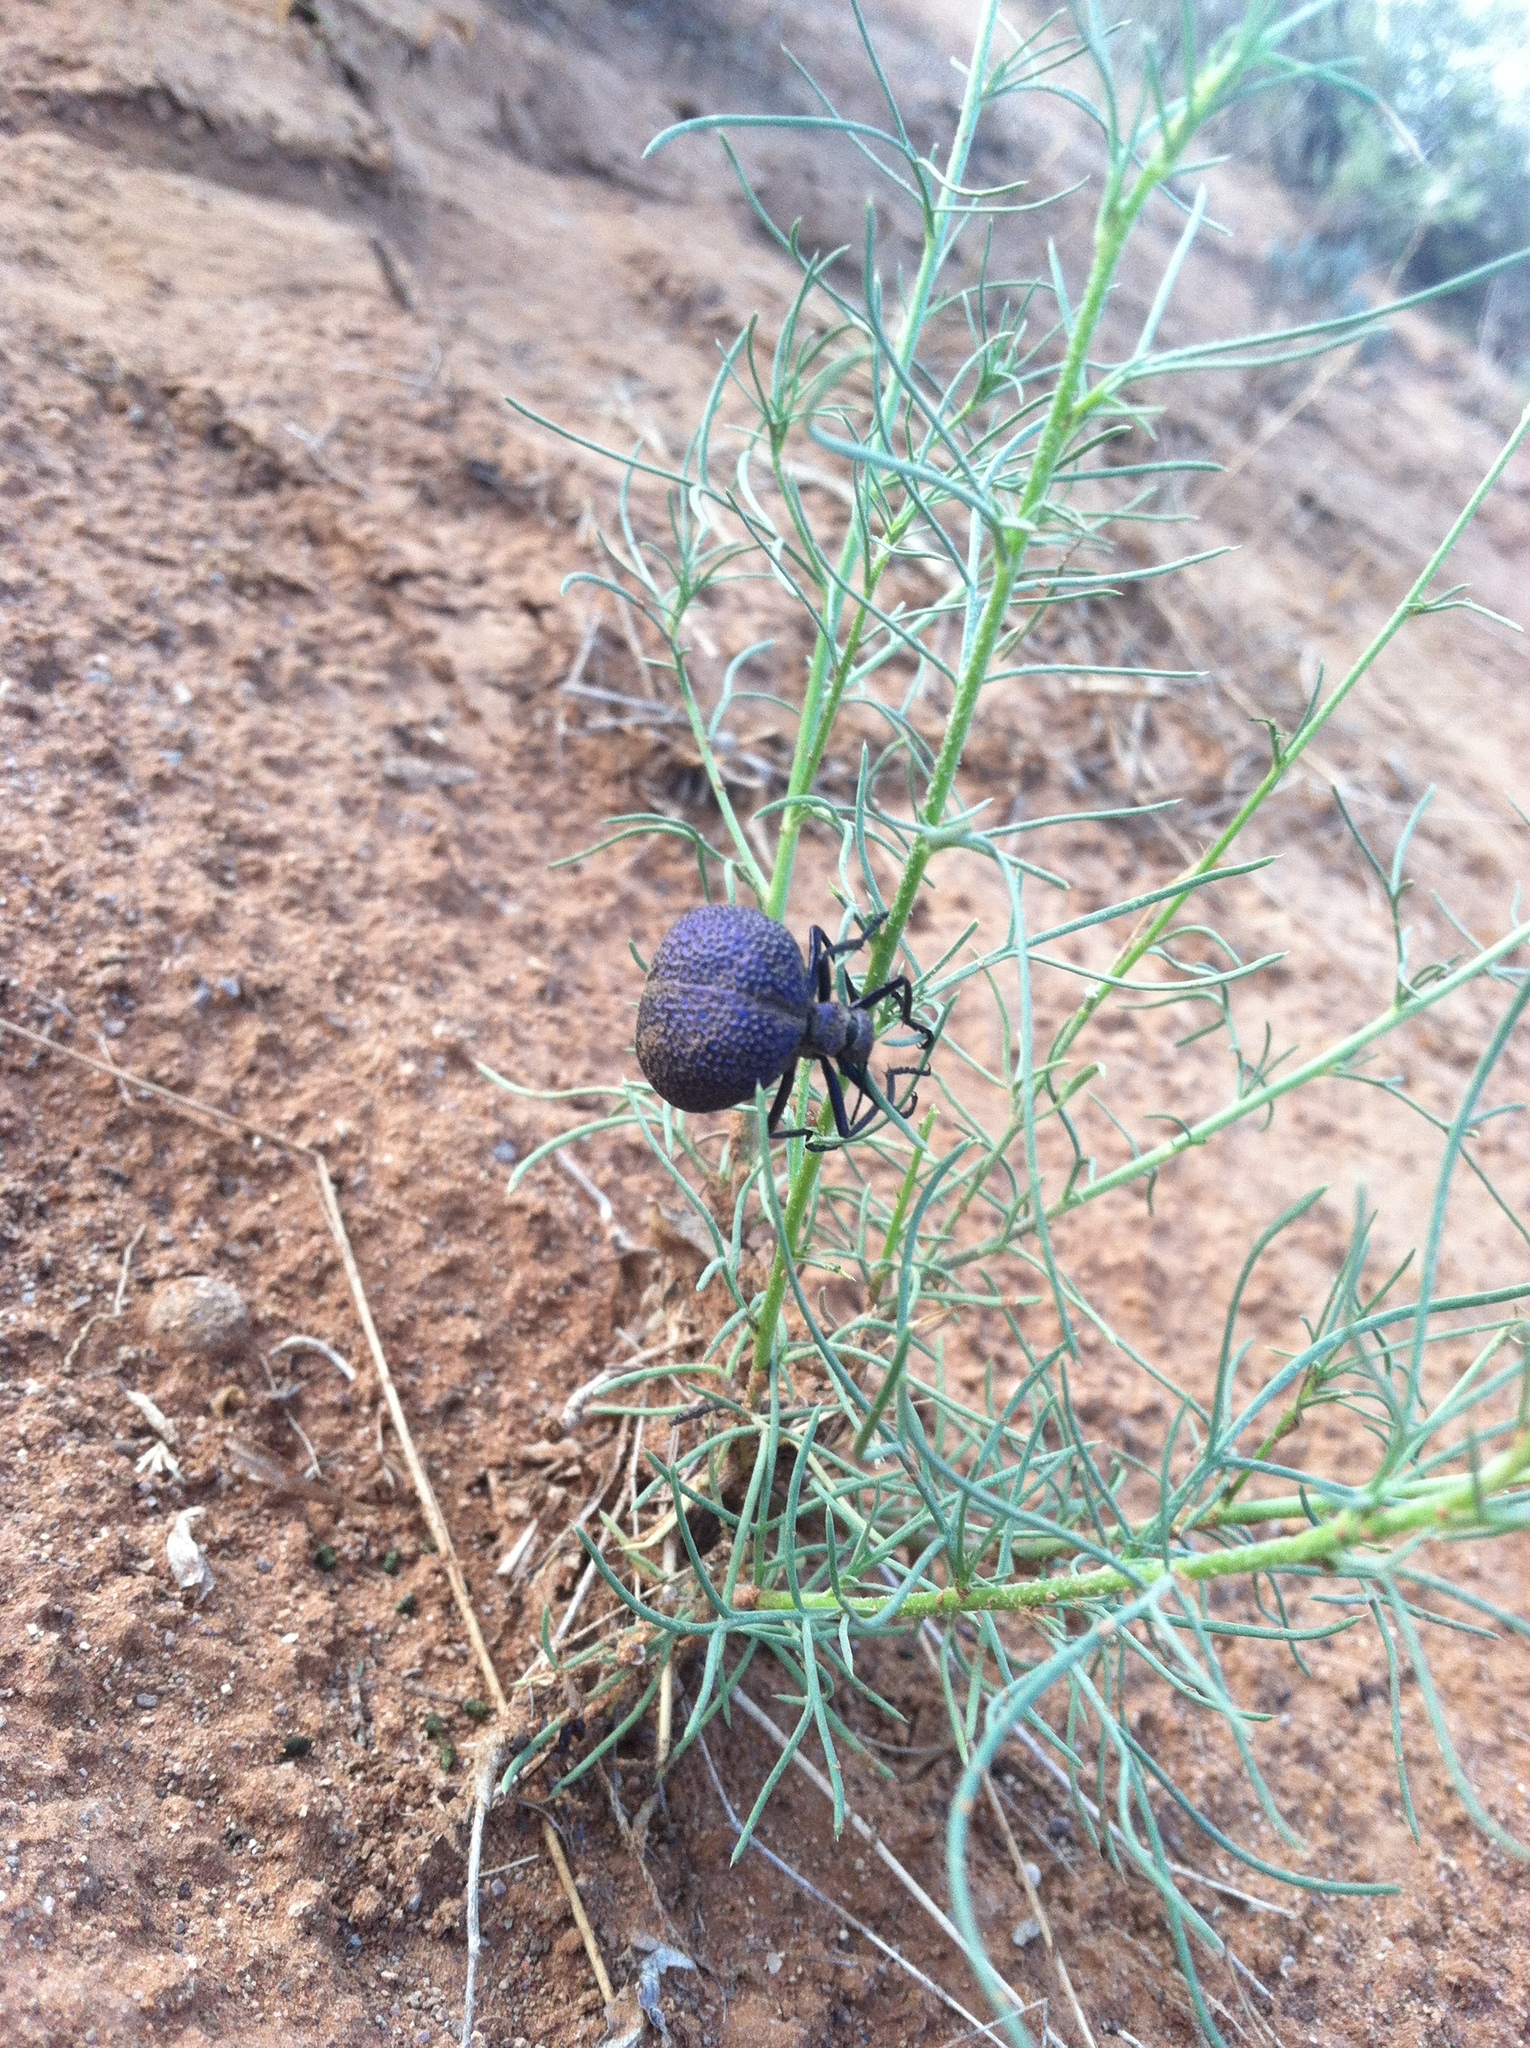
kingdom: Animalia
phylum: Arthropoda
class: Insecta
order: Coleoptera
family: Meloidae
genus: Cysteodemus
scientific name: Cysteodemus wislizeni
